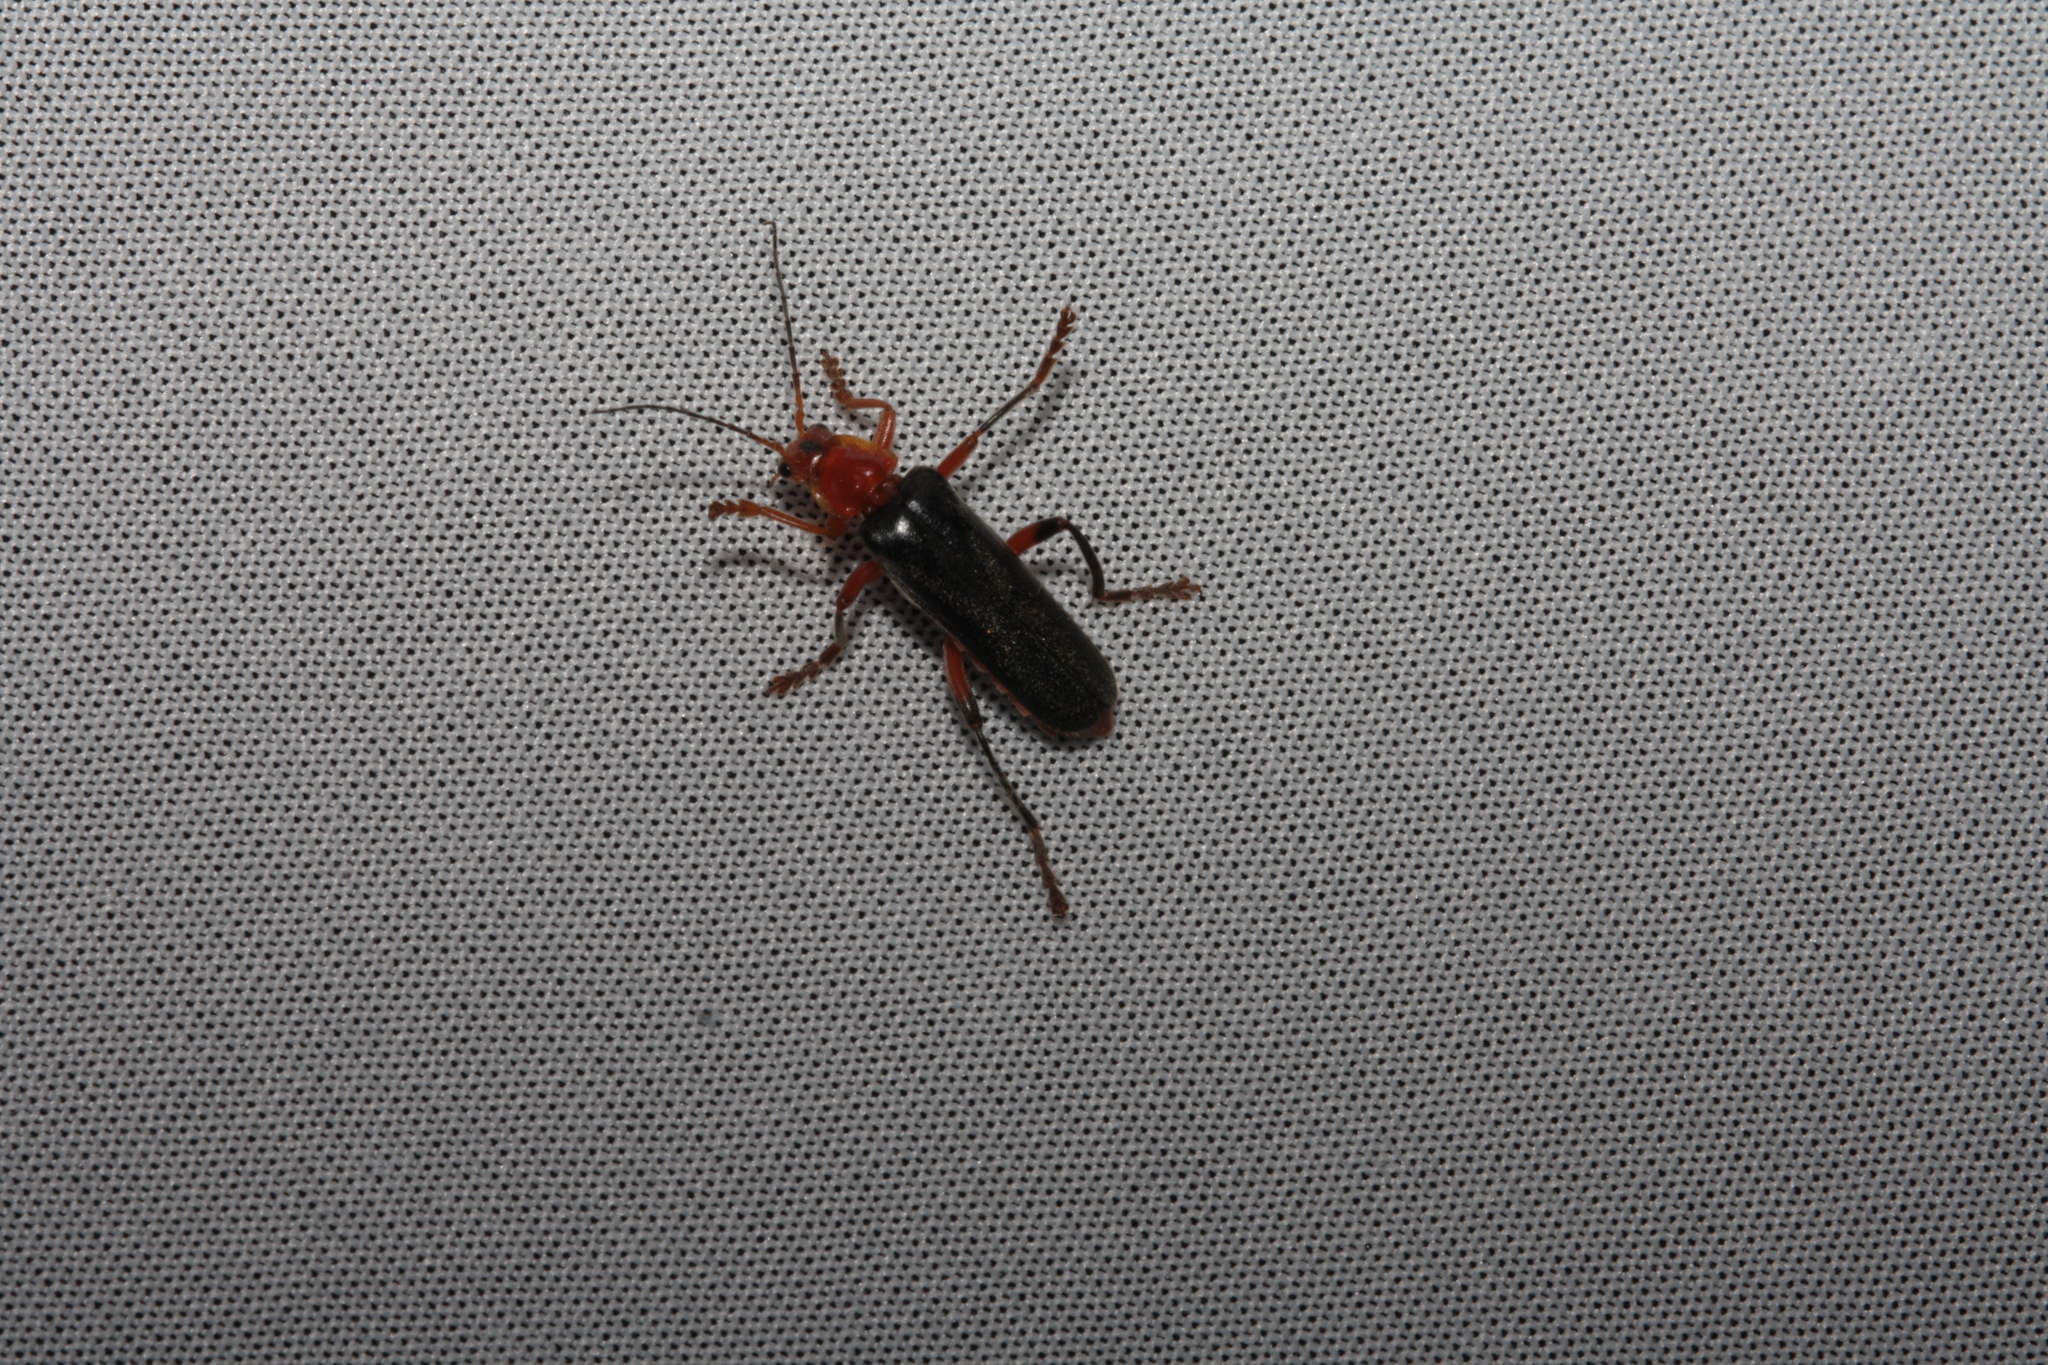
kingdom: Animalia
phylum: Arthropoda
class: Insecta
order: Coleoptera
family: Cantharidae
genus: Cantharis
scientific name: Cantharis livida
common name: Livid soldier beetle
